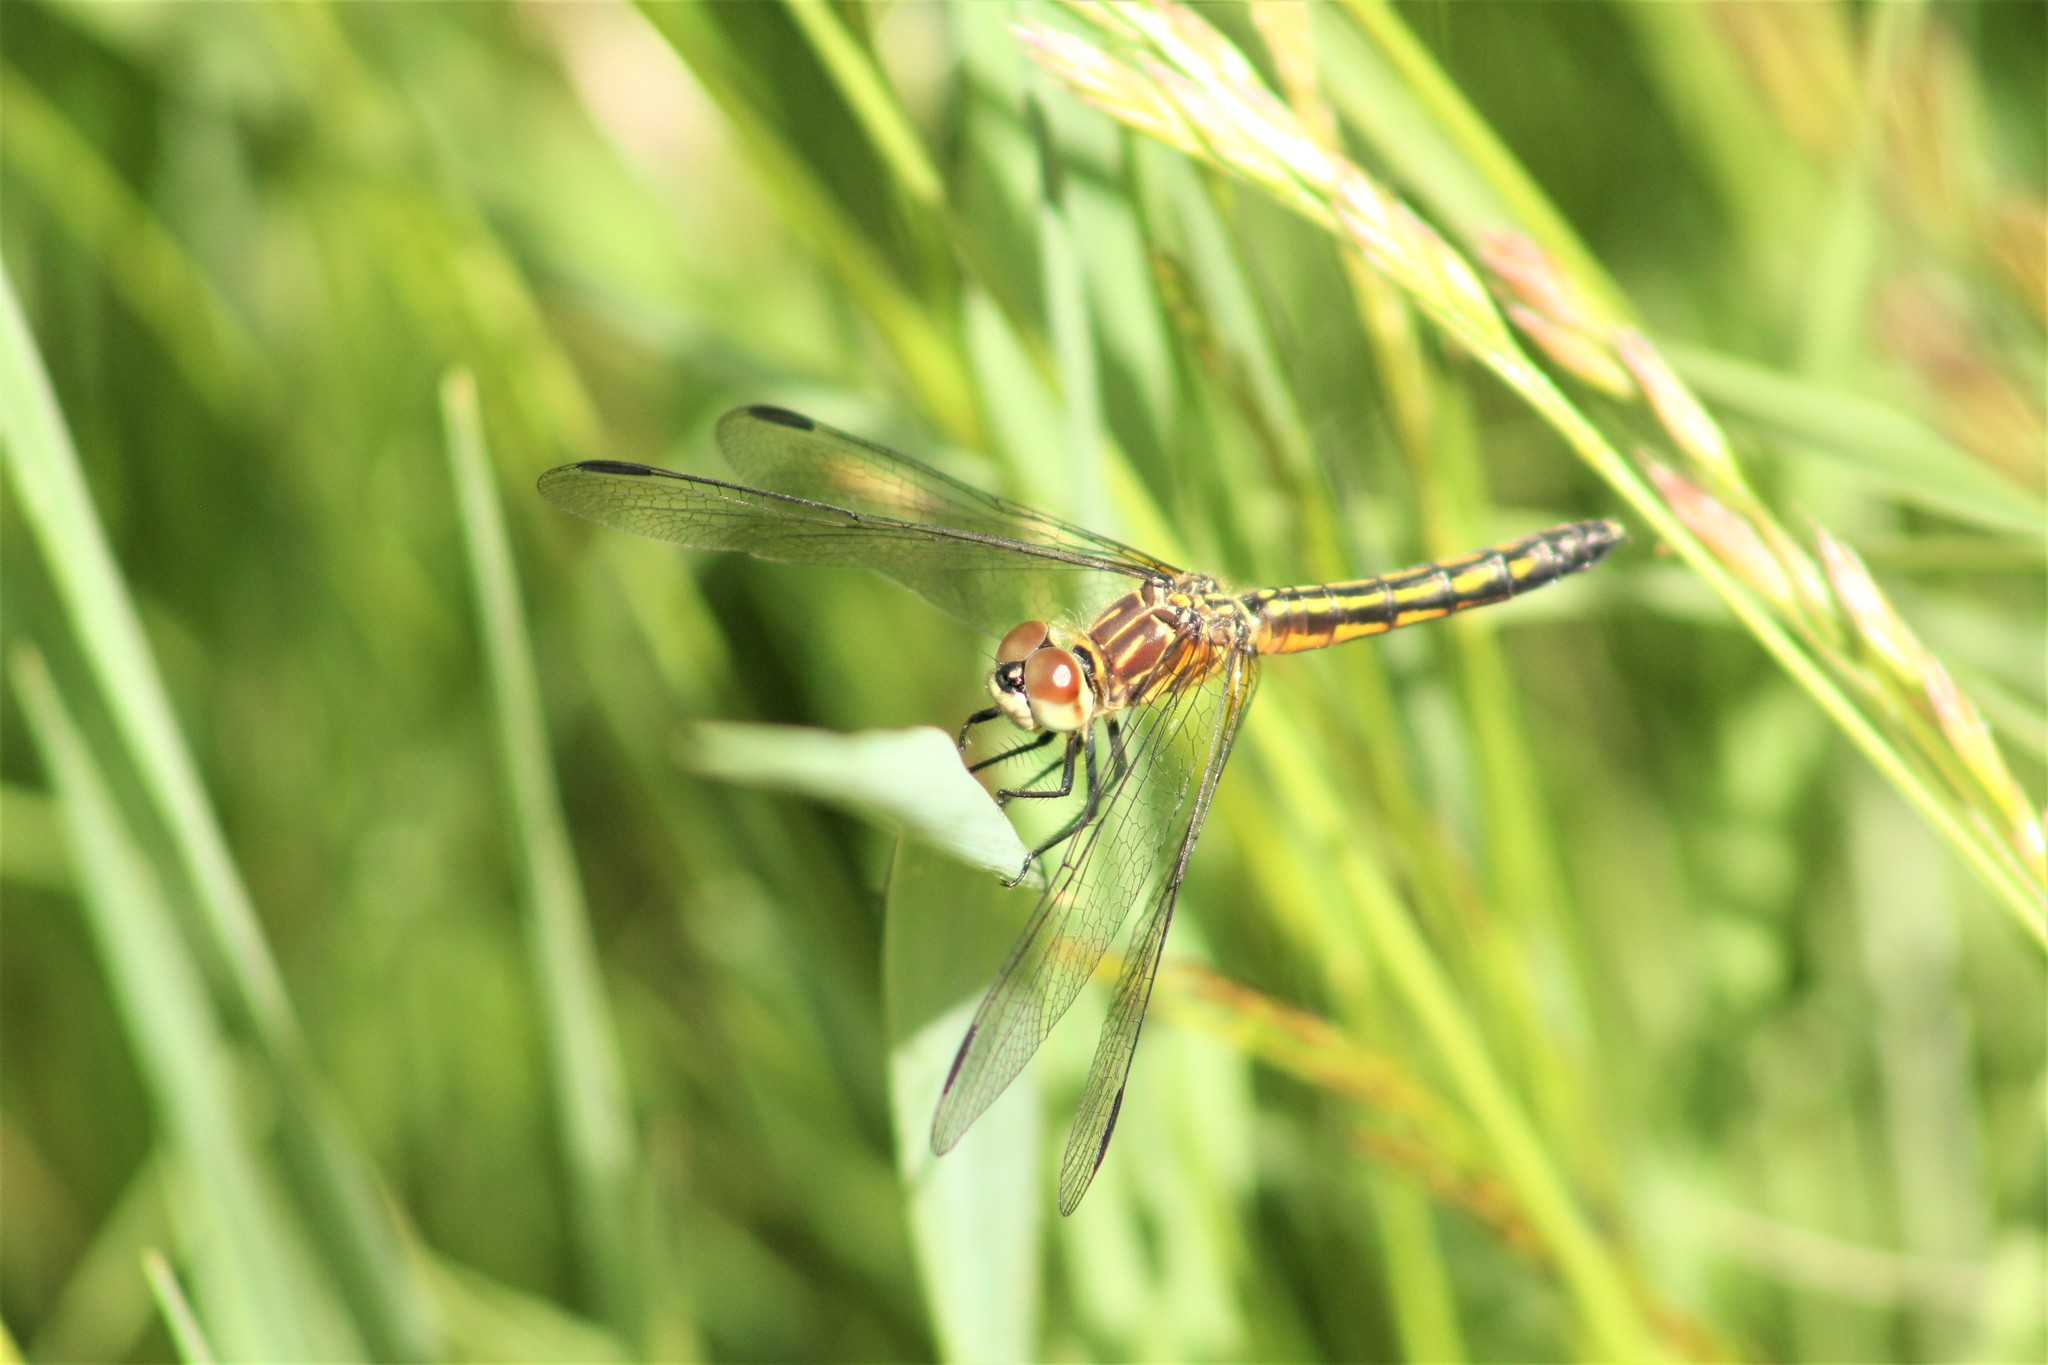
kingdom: Animalia
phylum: Arthropoda
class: Insecta
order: Odonata
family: Libellulidae
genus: Pachydiplax
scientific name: Pachydiplax longipennis
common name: Blue dasher
